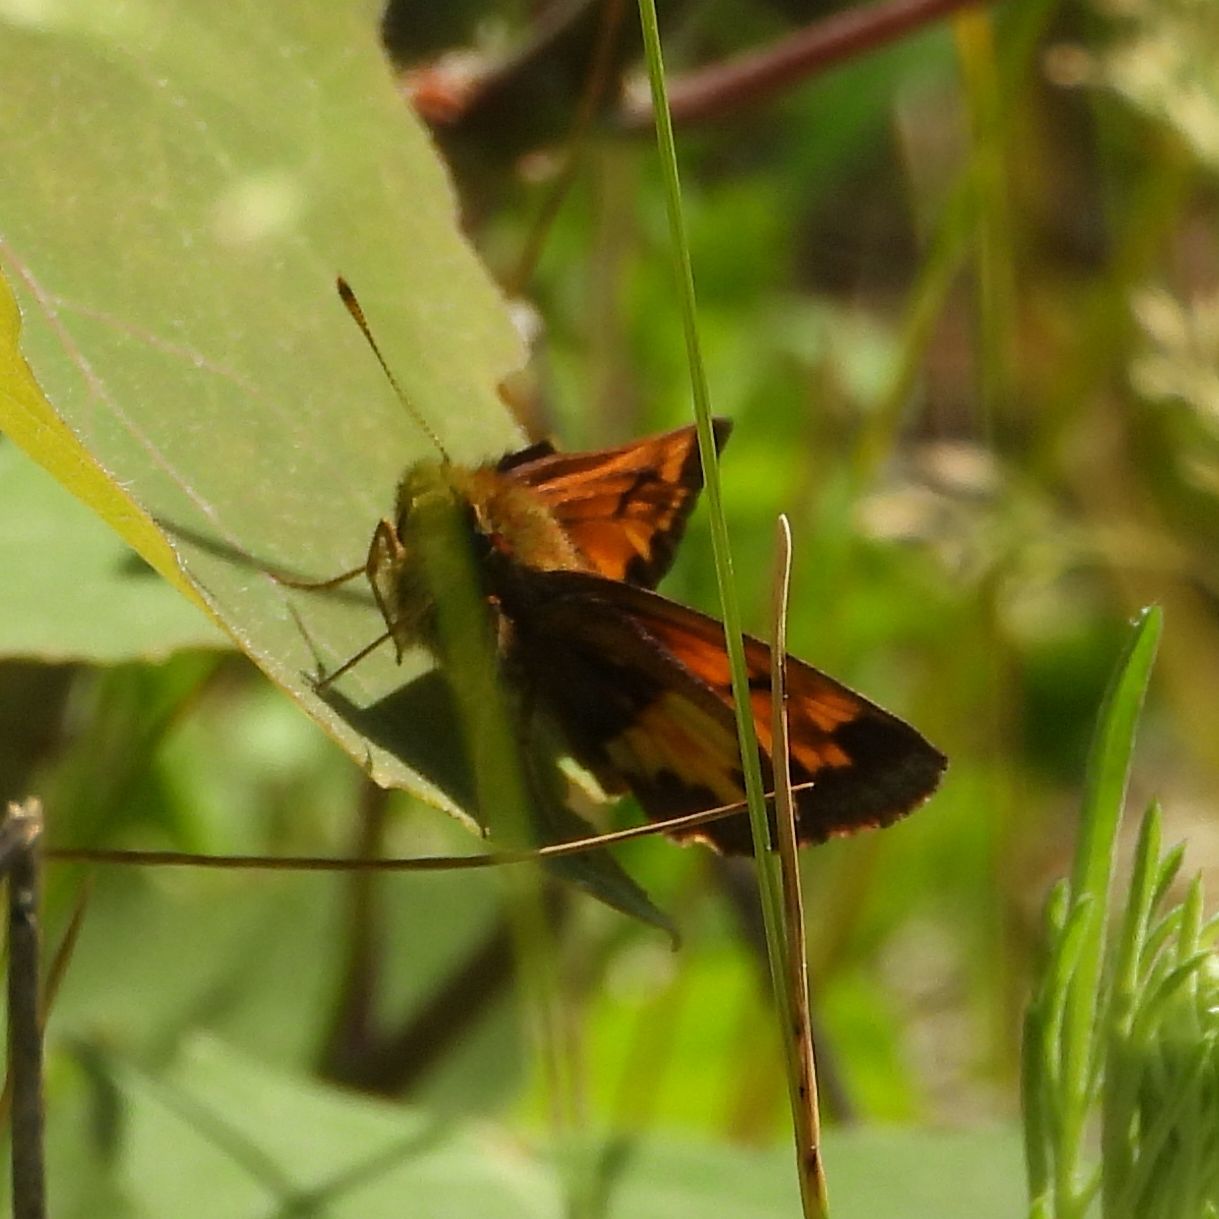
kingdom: Animalia
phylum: Arthropoda
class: Insecta
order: Lepidoptera
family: Hesperiidae
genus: Lon
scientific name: Lon hobomok
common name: Hobomok skipper
